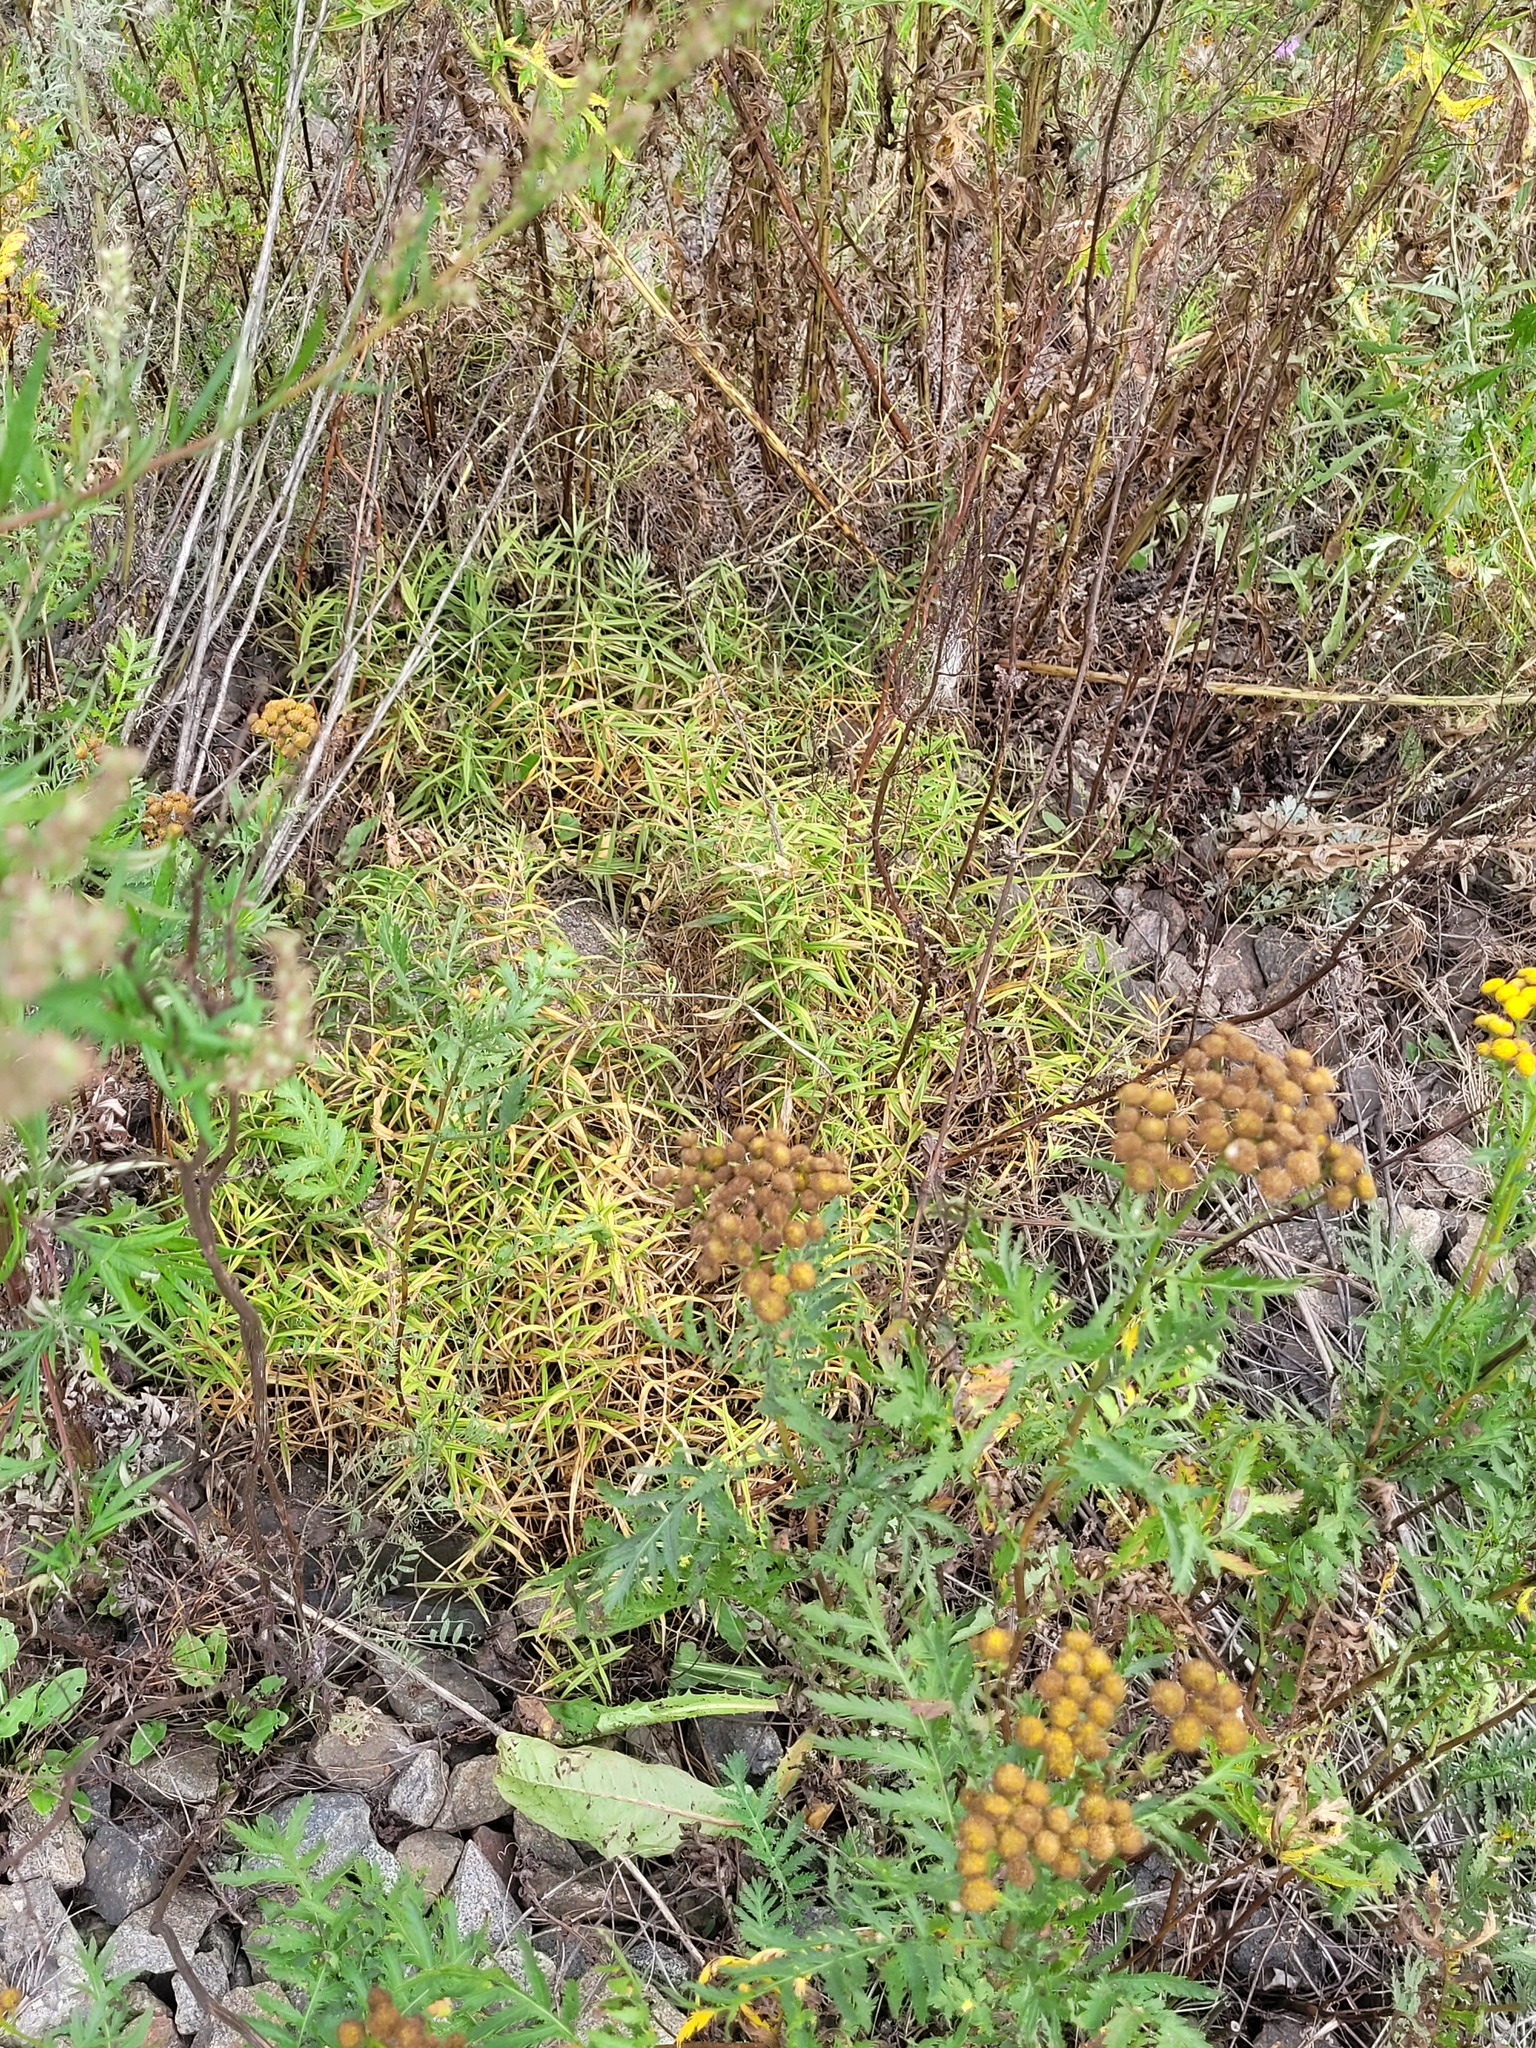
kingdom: Plantae
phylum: Tracheophyta
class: Magnoliopsida
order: Caryophyllales
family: Caryophyllaceae
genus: Rabelera
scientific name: Rabelera holostea
